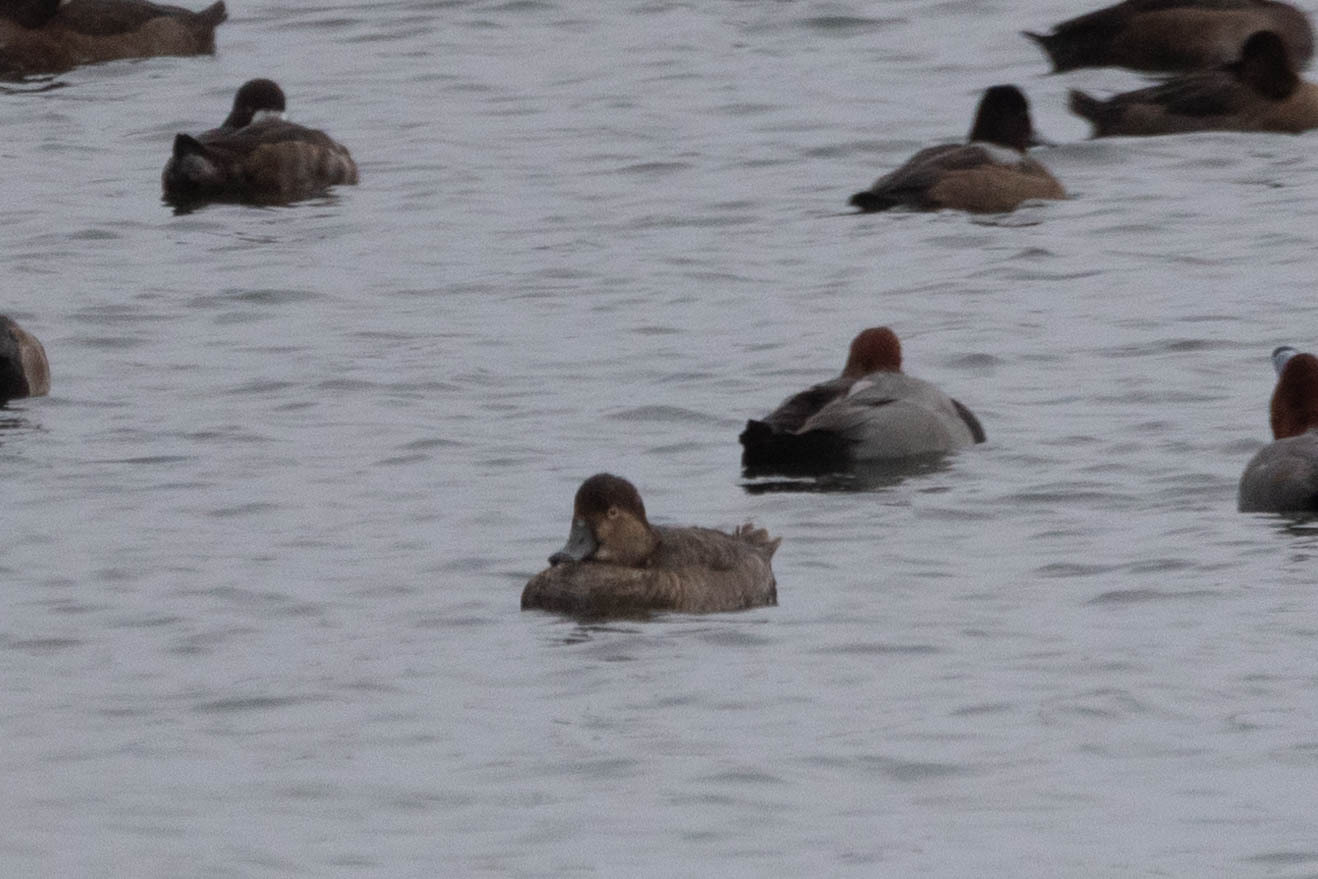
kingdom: Animalia
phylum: Chordata
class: Aves
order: Anseriformes
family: Anatidae
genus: Aythya
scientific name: Aythya americana
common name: Redhead
